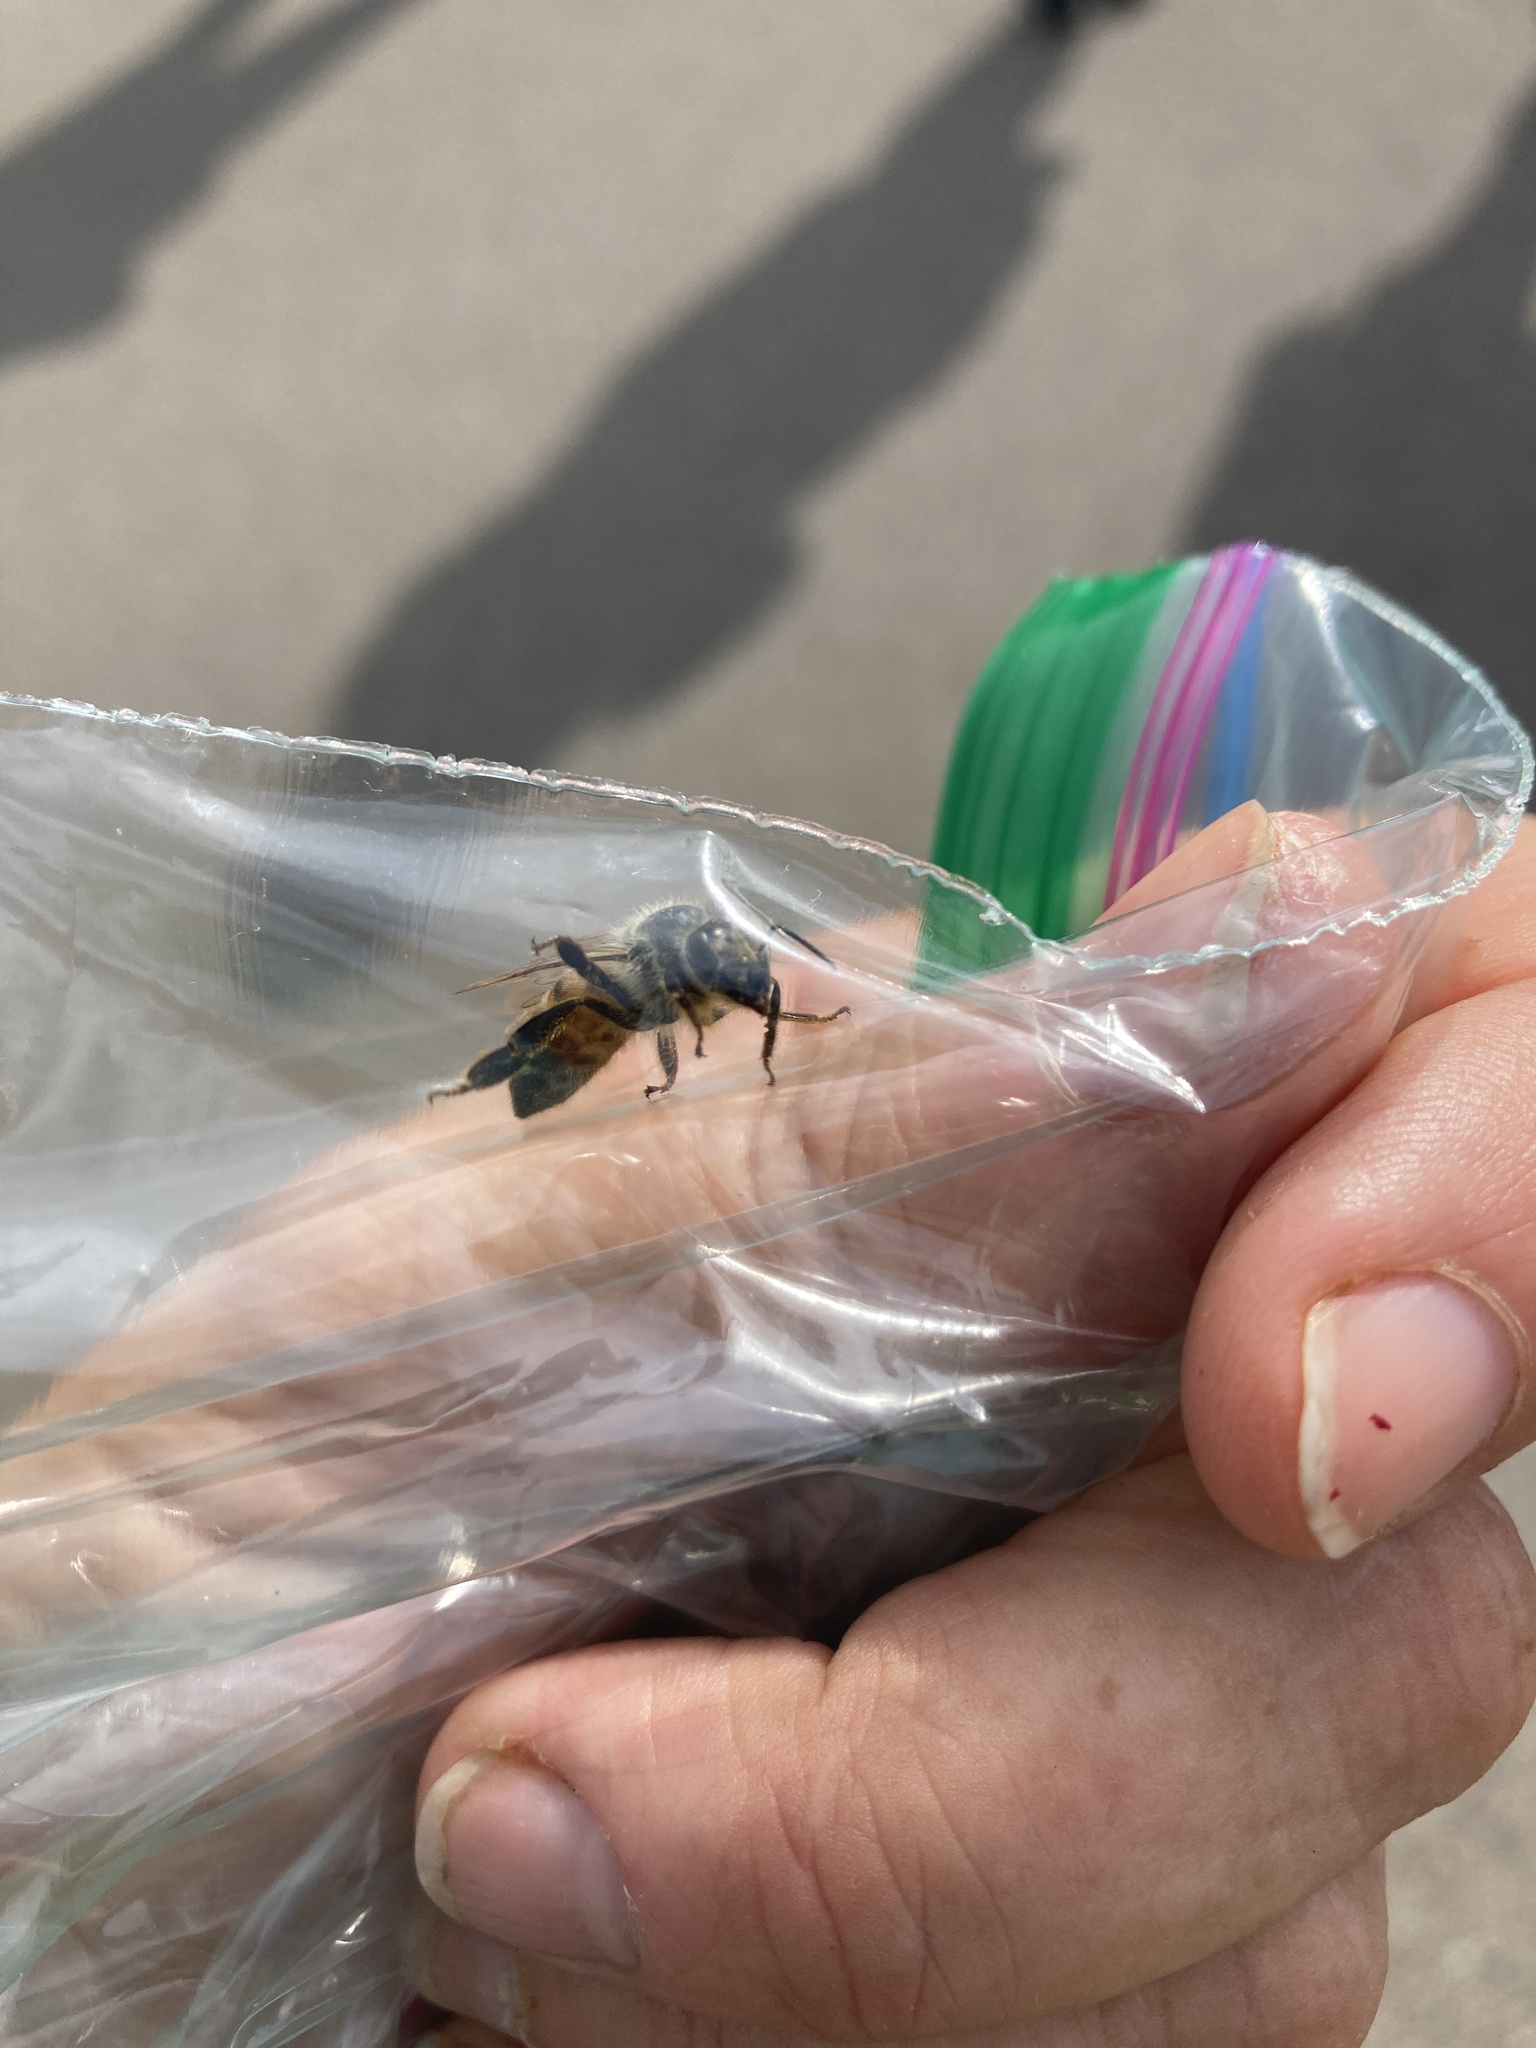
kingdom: Animalia
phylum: Arthropoda
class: Insecta
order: Hymenoptera
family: Apidae
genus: Apis
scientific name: Apis mellifera
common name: Honey bee
